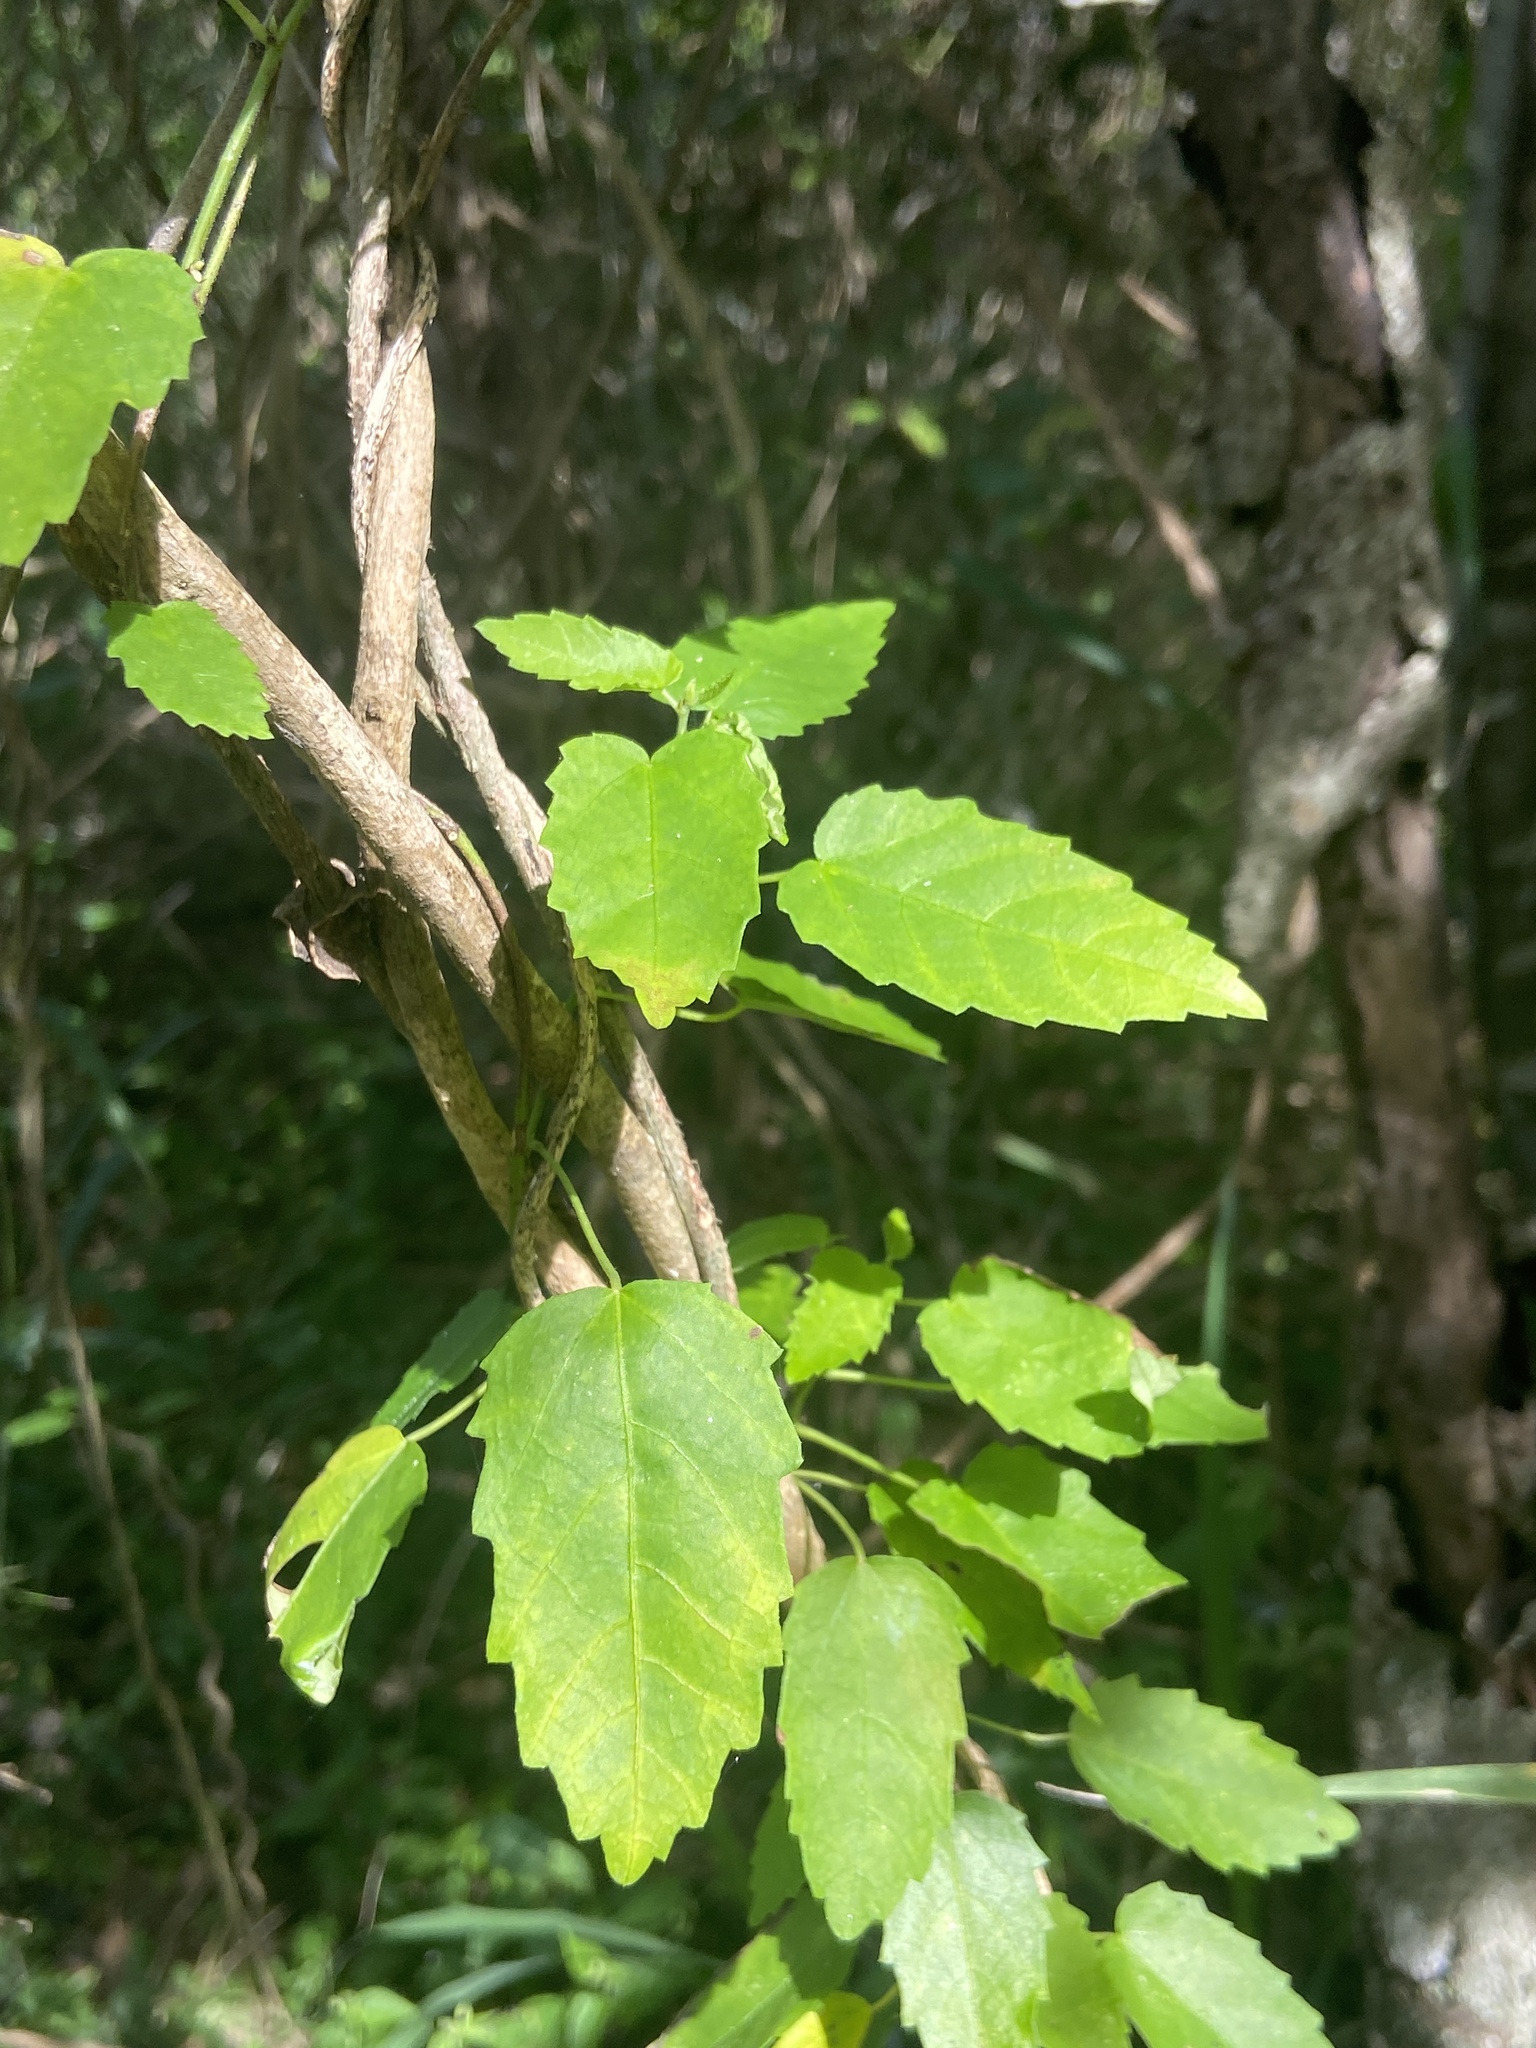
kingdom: Plantae
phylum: Tracheophyta
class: Magnoliopsida
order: Malpighiales
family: Euphorbiaceae
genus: Tragia
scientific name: Tragia volubilis
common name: Twining cow-itch
